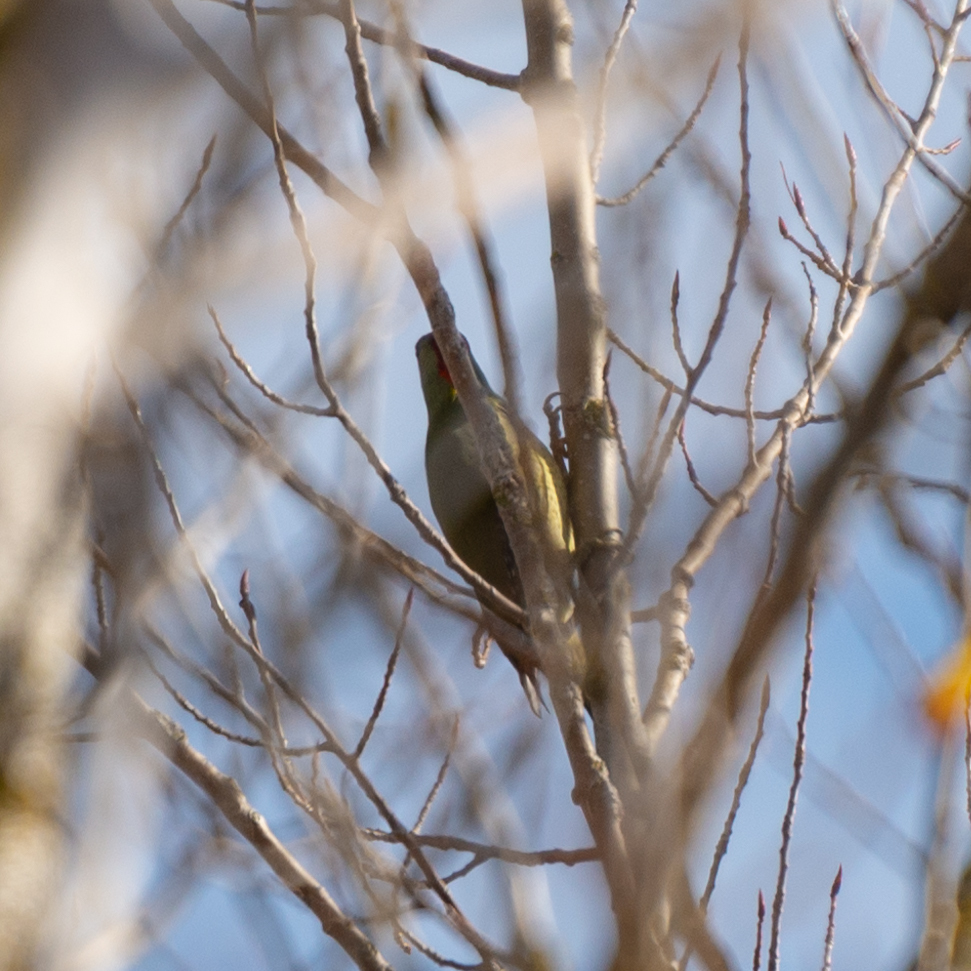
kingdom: Animalia
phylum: Chordata
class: Aves
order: Piciformes
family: Picidae
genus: Picus
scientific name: Picus sharpei
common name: Iberian green woodpecker
